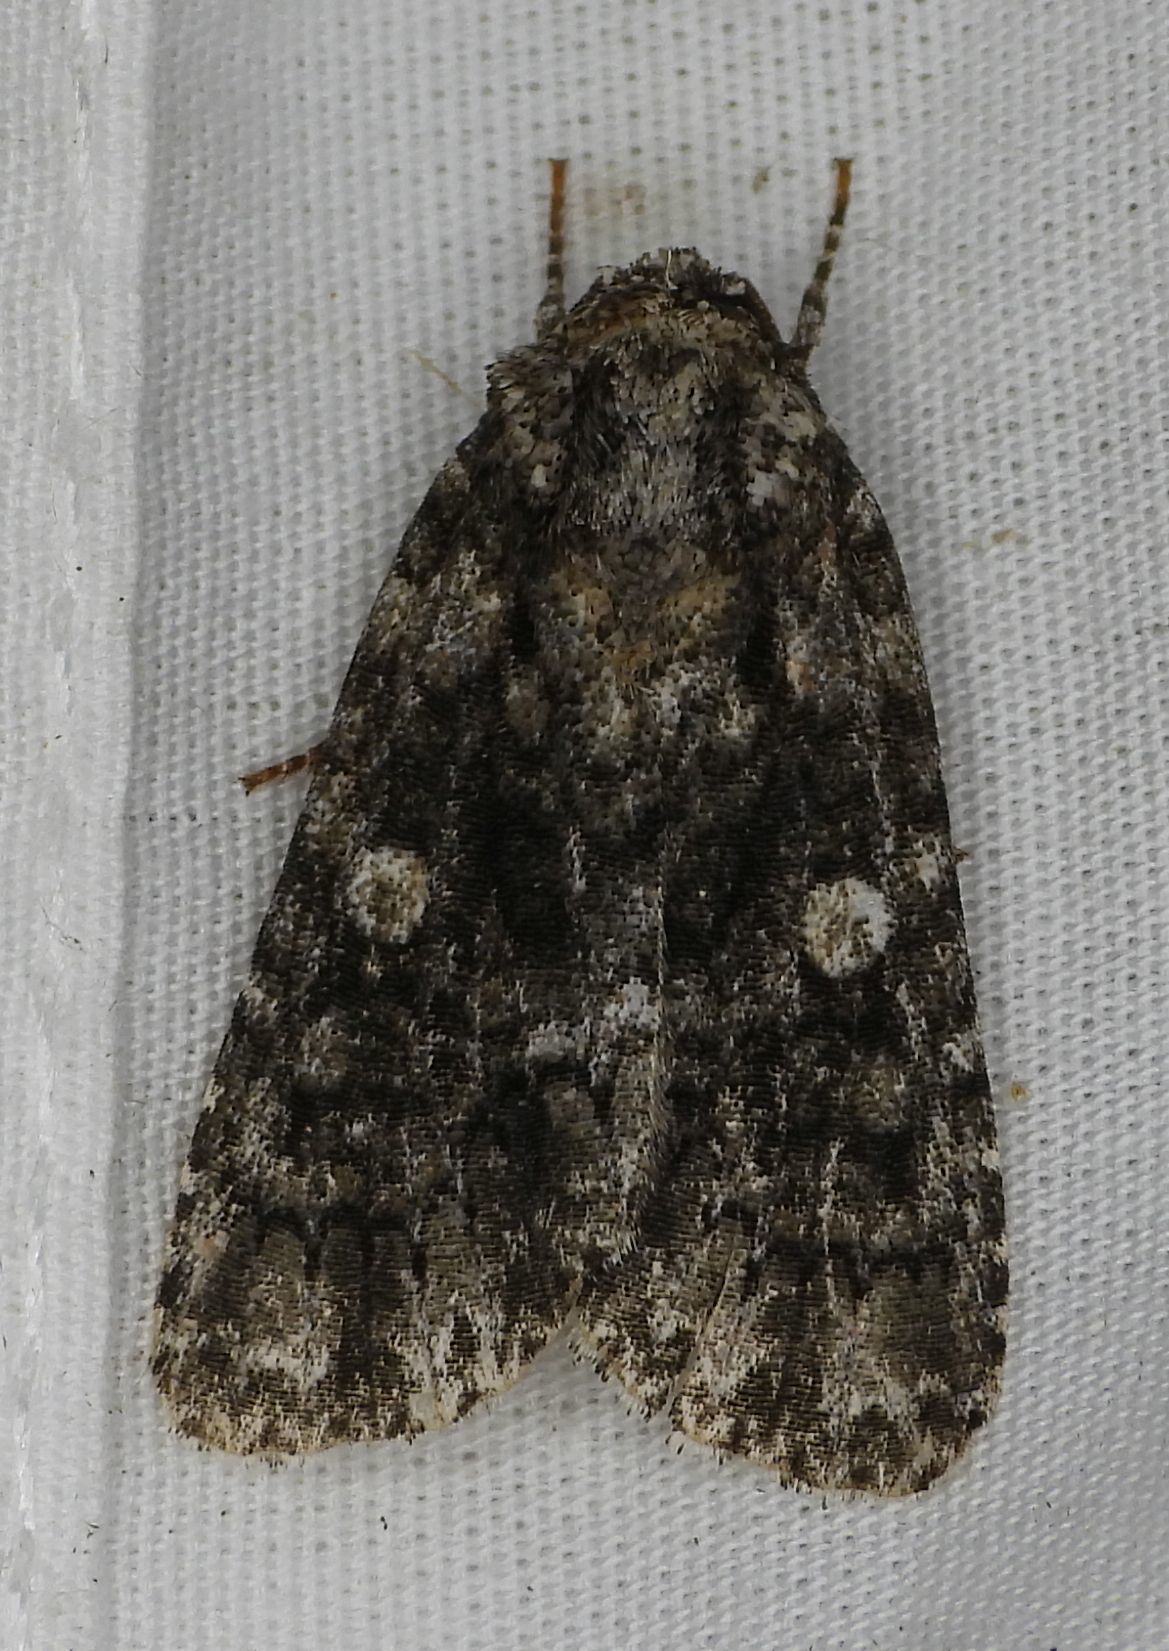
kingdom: Animalia
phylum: Arthropoda
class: Insecta
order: Lepidoptera
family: Noctuidae
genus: Acronicta
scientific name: Acronicta afflicta
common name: Afflicted dagger moth
